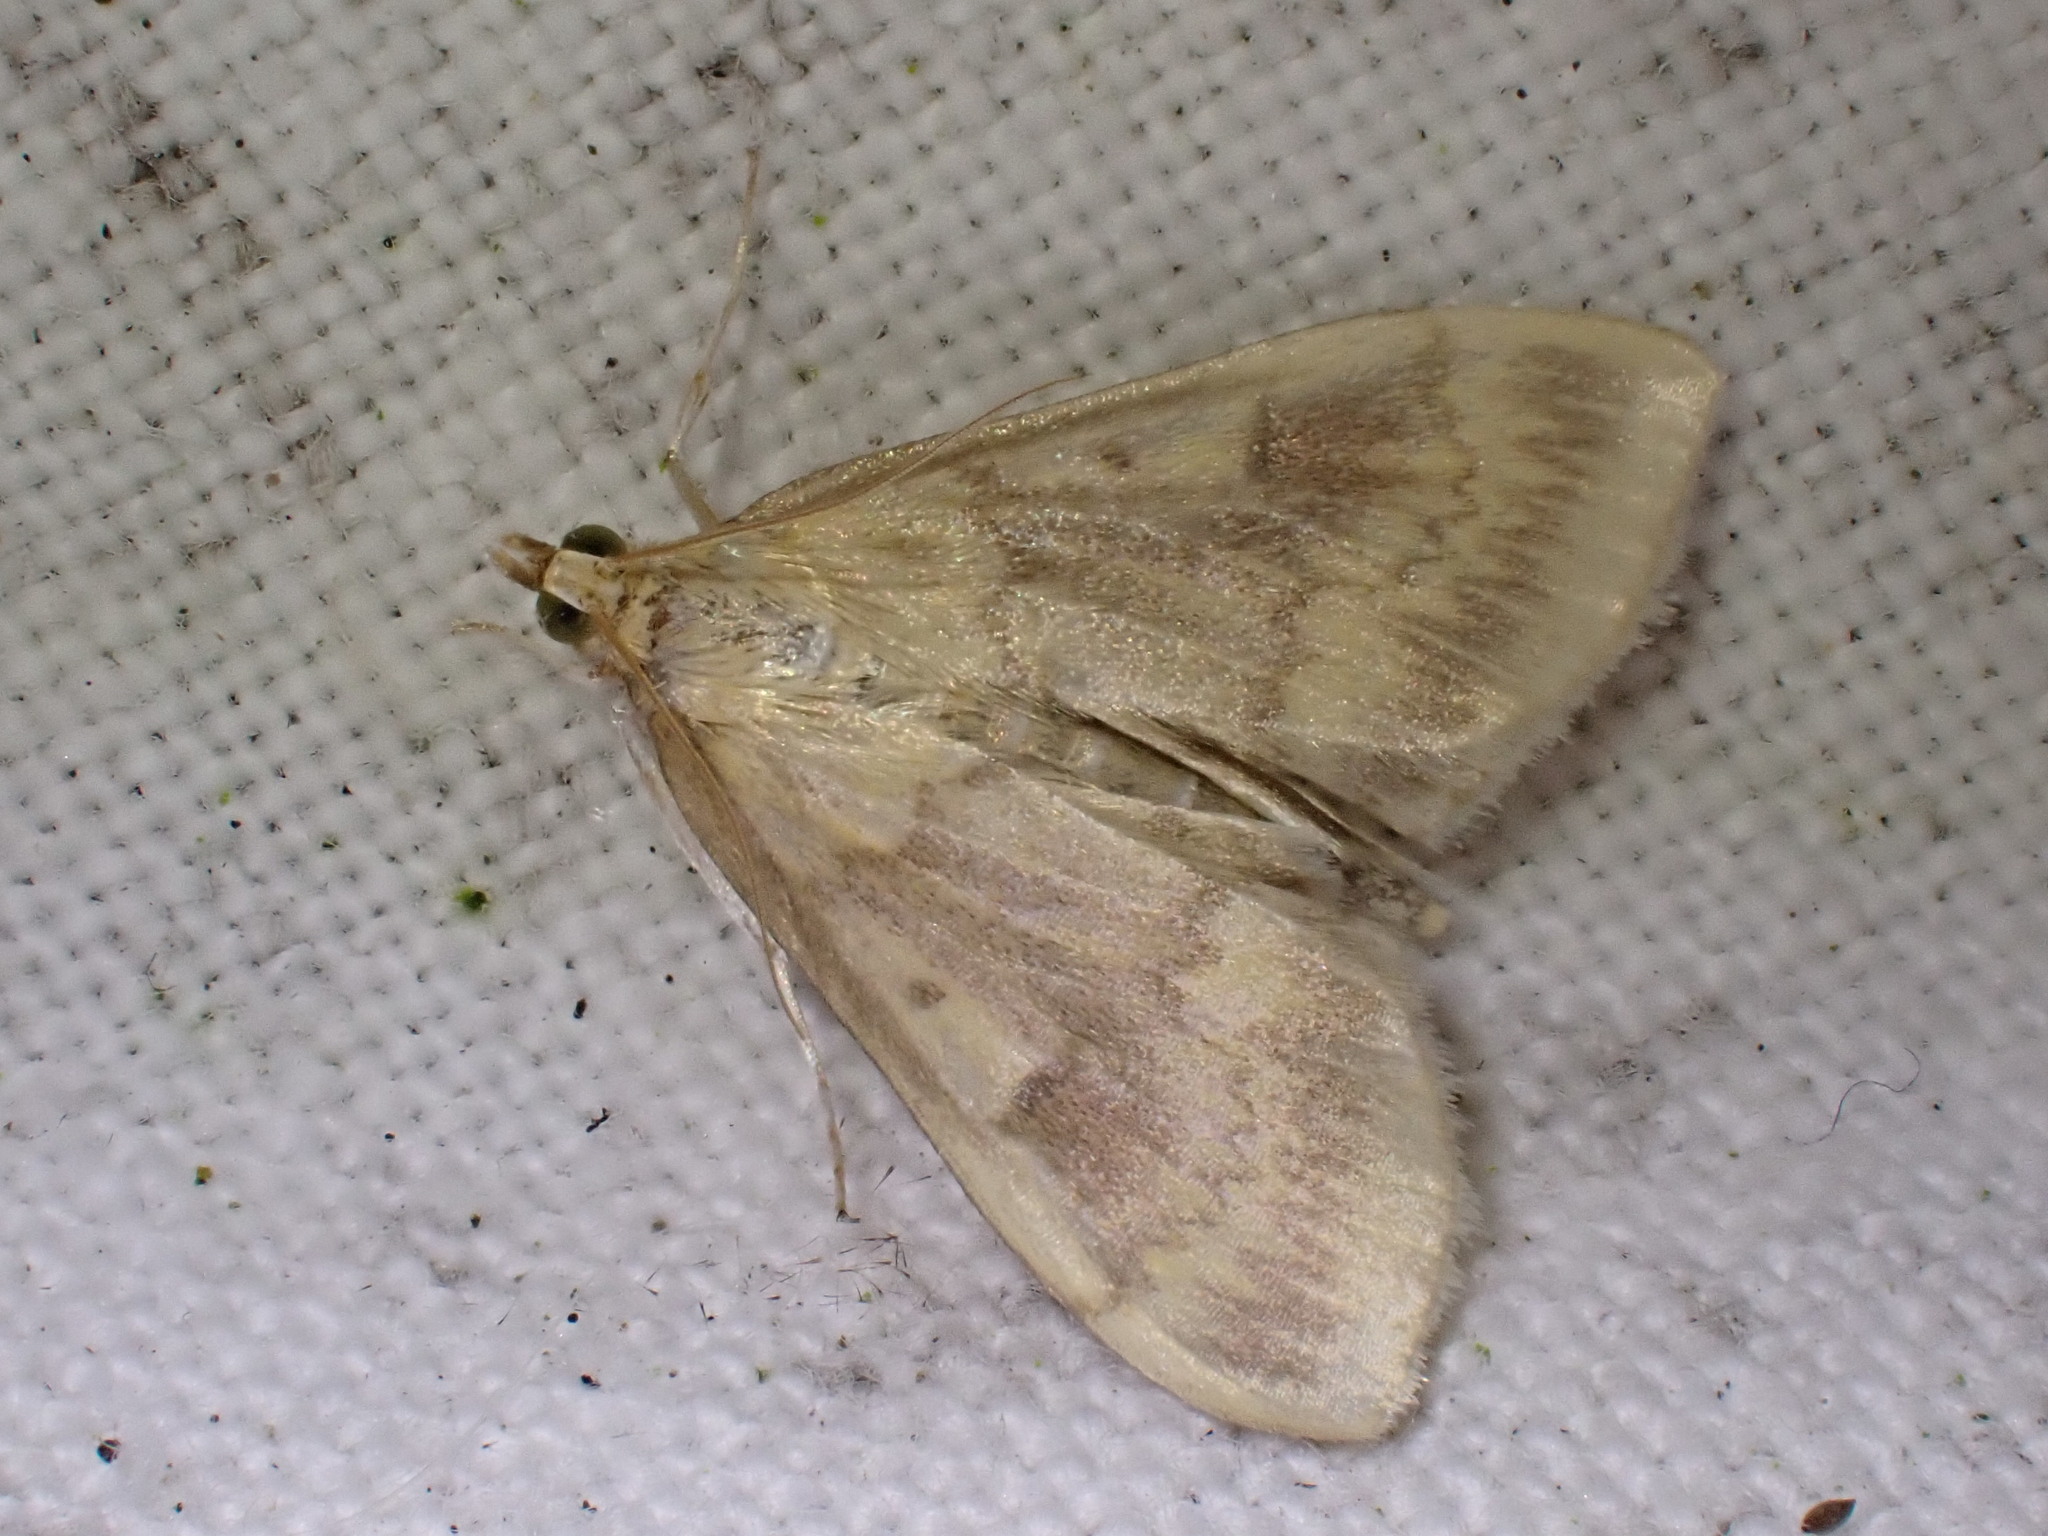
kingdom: Animalia
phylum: Arthropoda
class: Insecta
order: Lepidoptera
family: Crambidae
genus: Ostrinia
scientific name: Ostrinia nubilalis
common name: European corn borer
